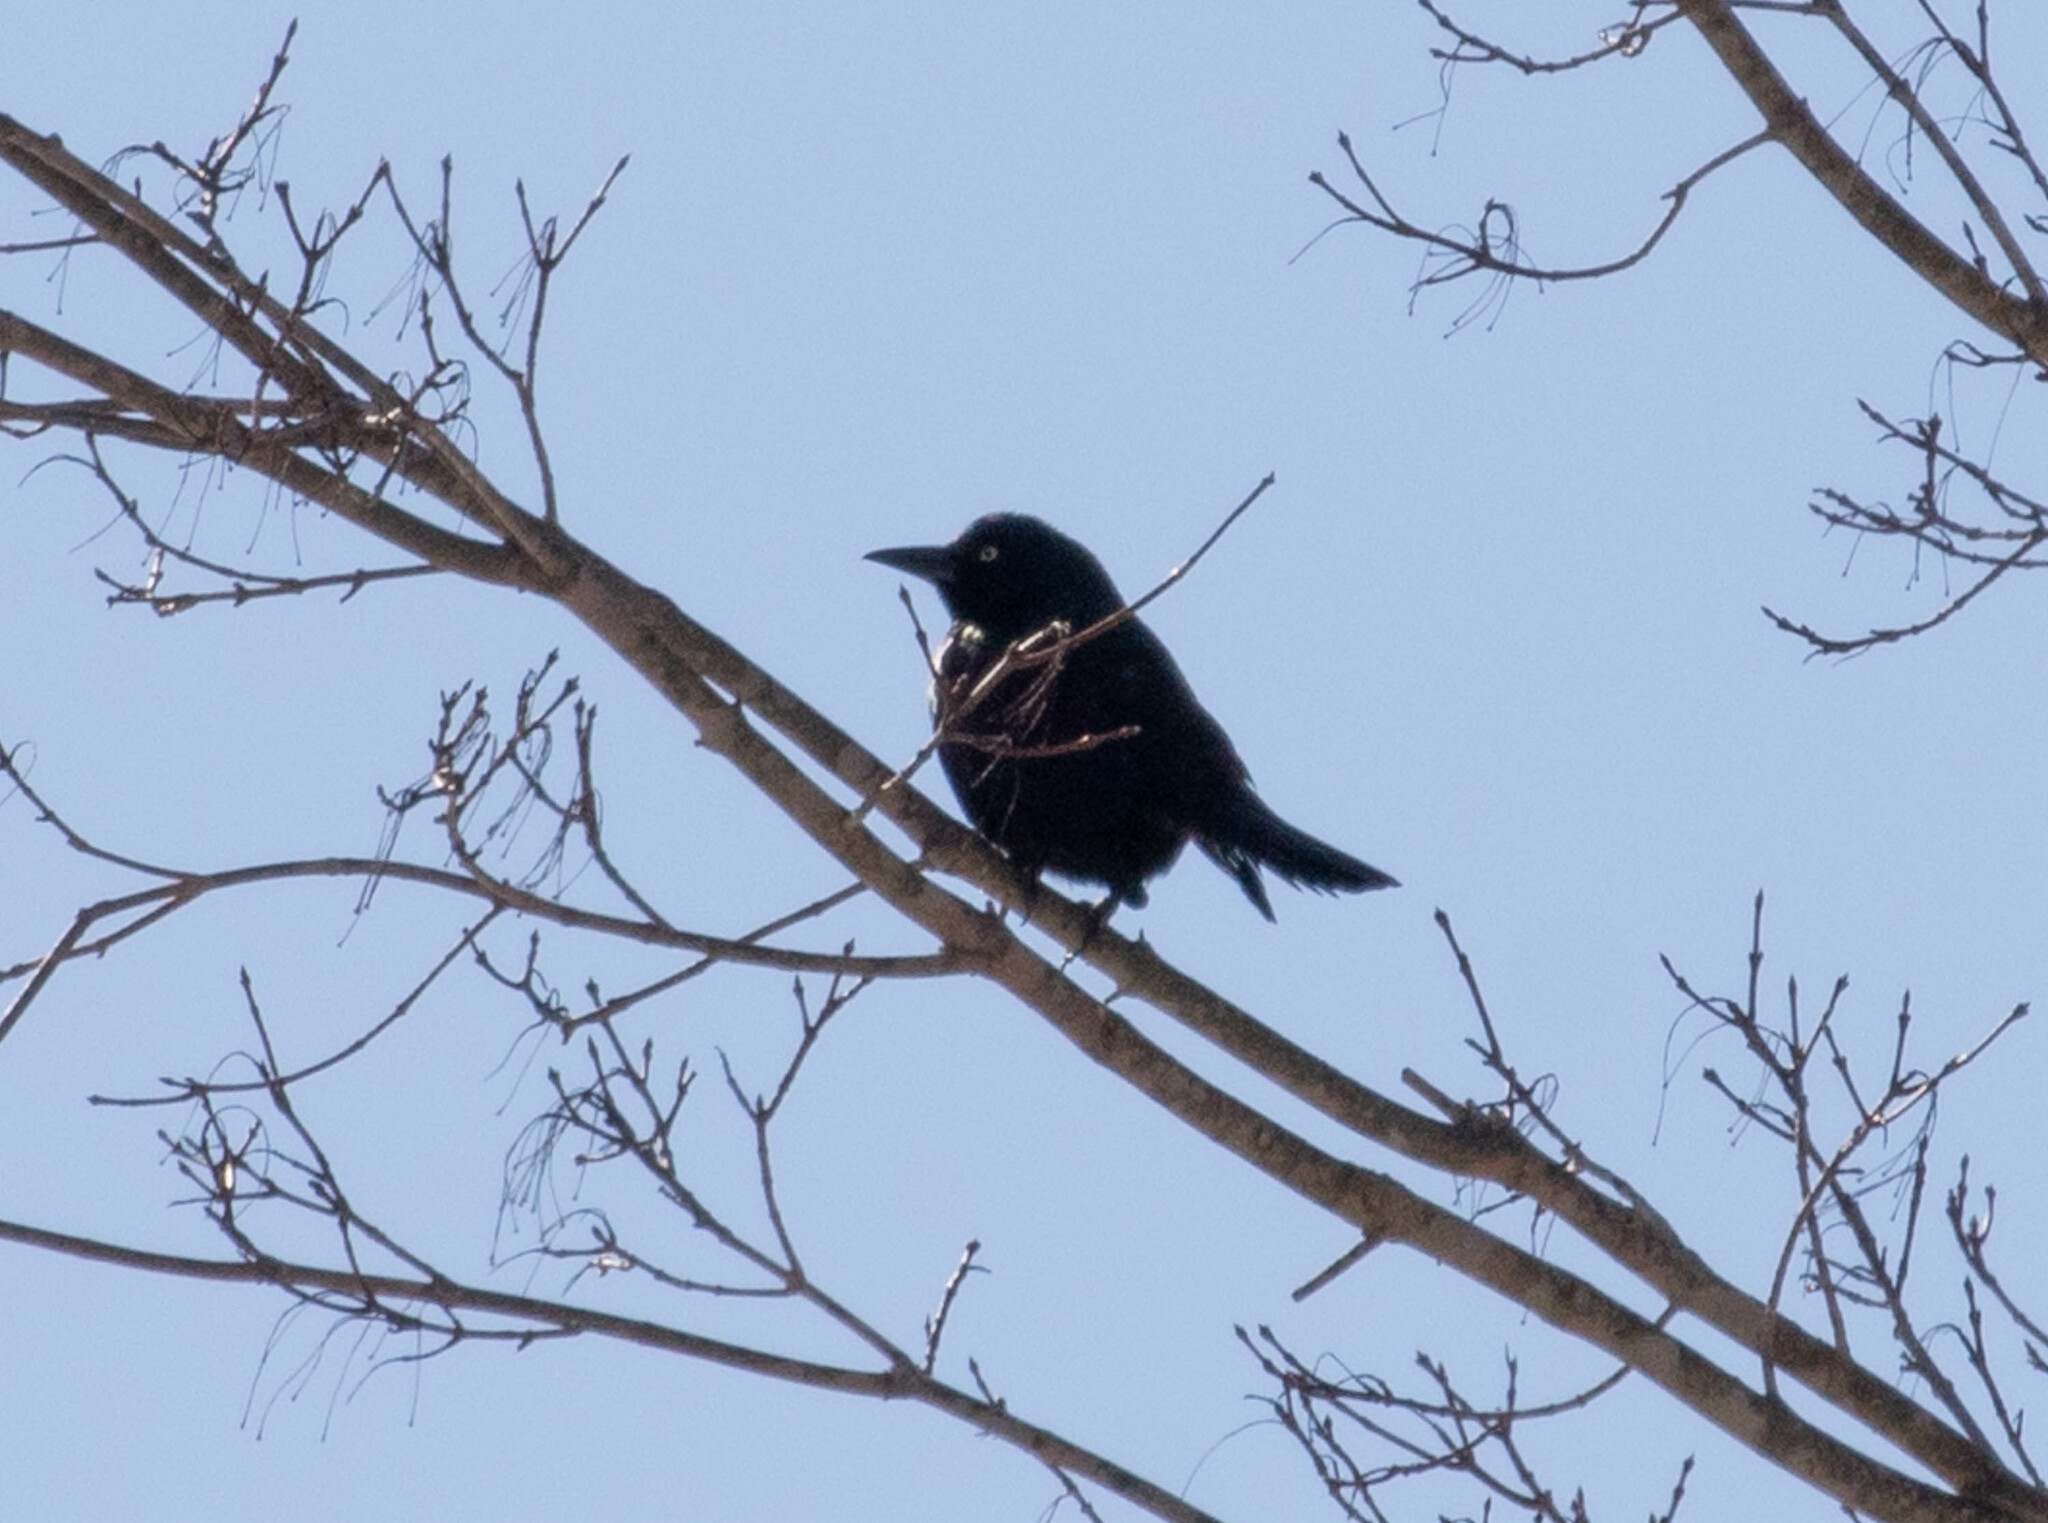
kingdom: Animalia
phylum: Chordata
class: Aves
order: Passeriformes
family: Icteridae
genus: Quiscalus
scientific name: Quiscalus quiscula
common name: Common grackle
